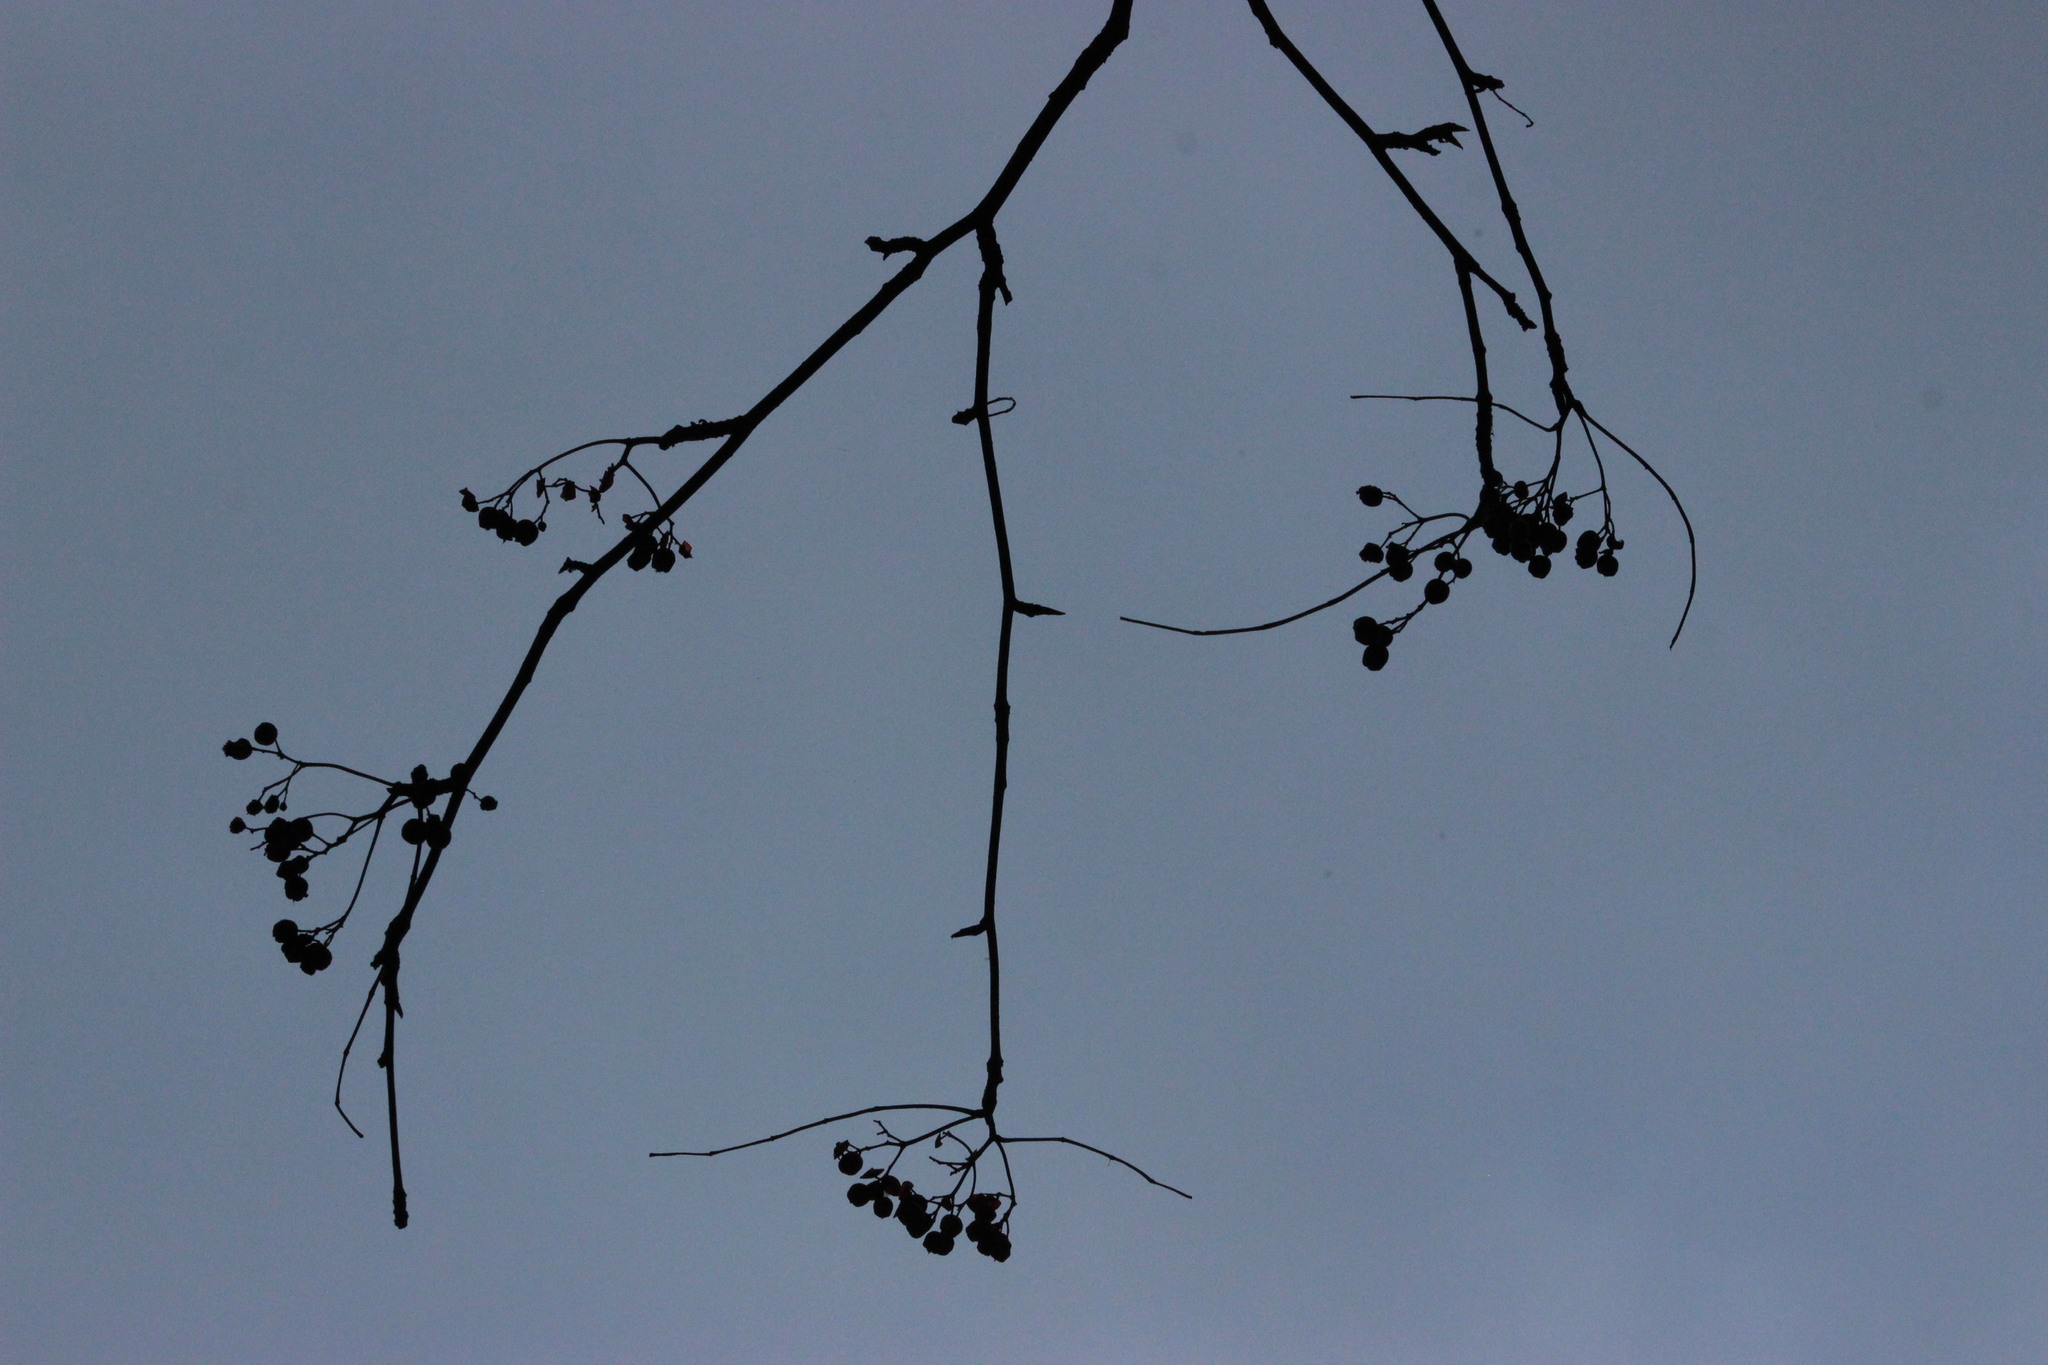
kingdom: Plantae
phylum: Tracheophyta
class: Magnoliopsida
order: Rosales
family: Rosaceae
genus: Sorbus
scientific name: Sorbus aucuparia
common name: Rowan
